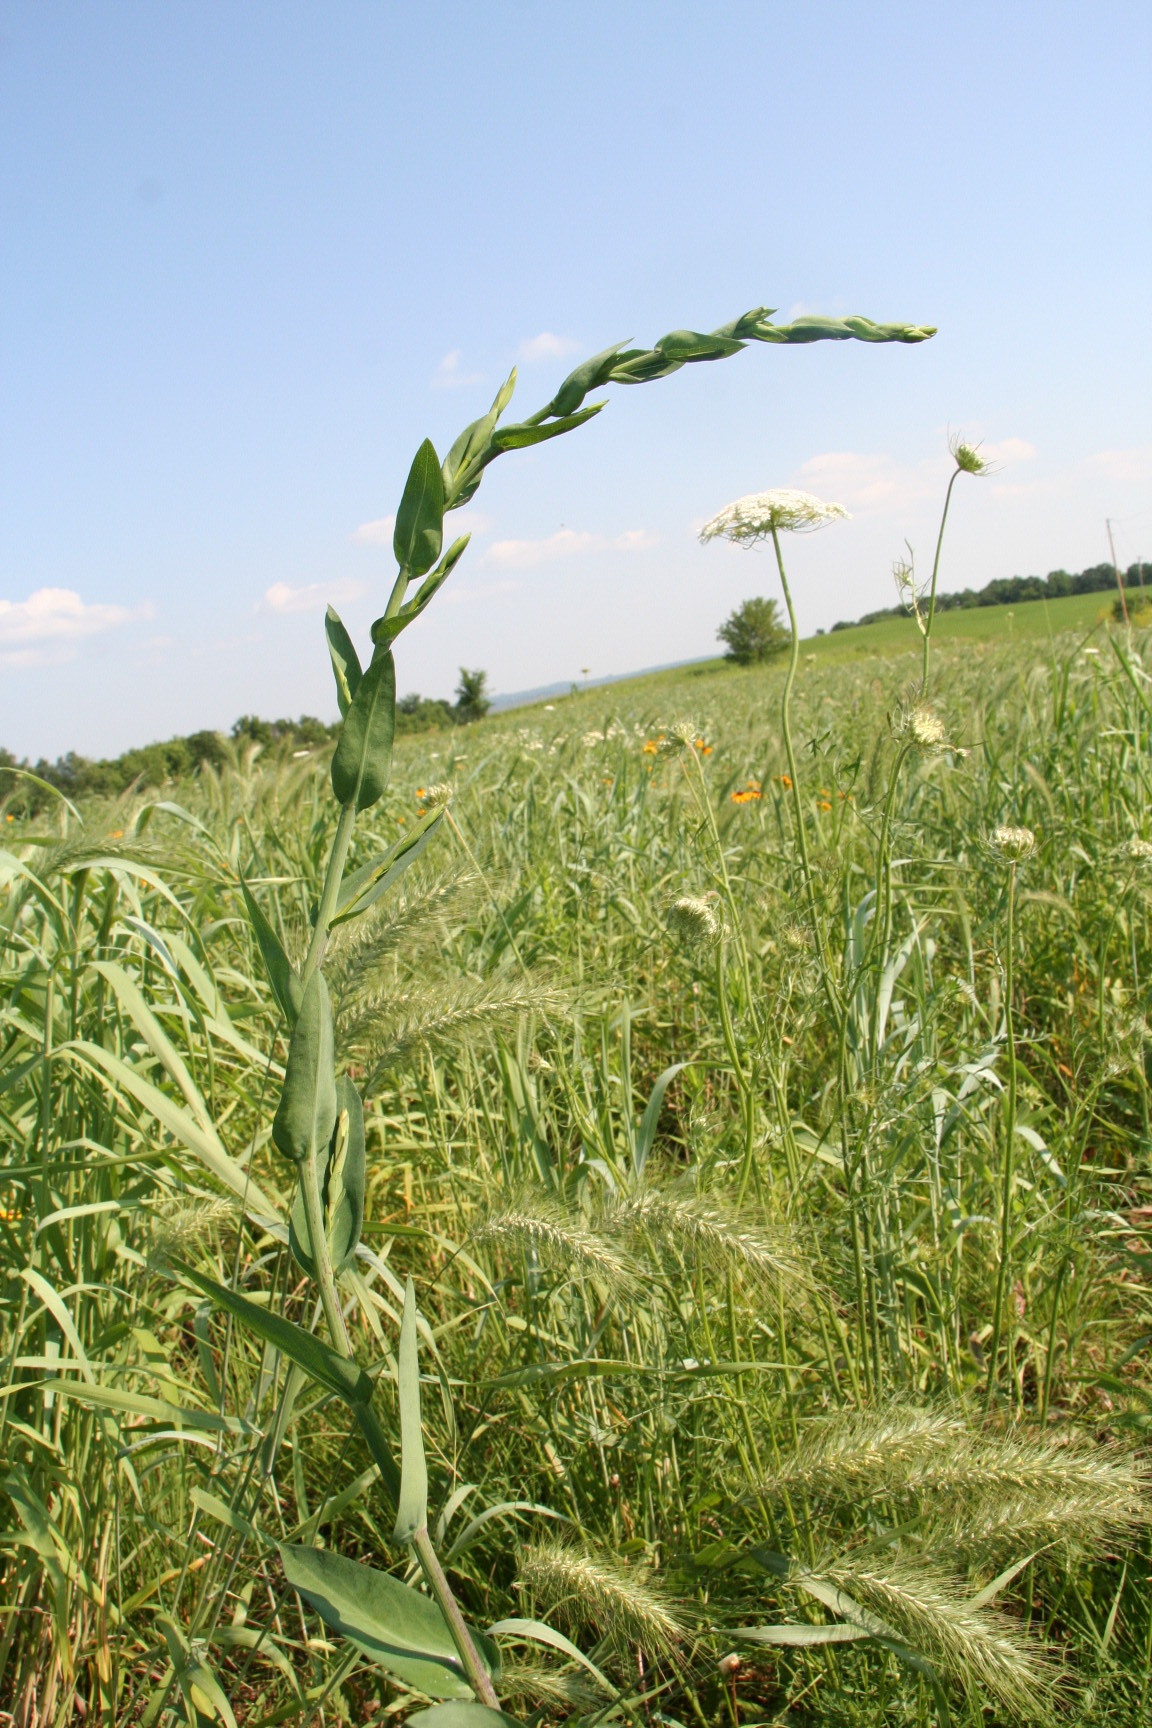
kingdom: Plantae
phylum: Tracheophyta
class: Magnoliopsida
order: Asterales
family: Asteraceae
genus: Symphyotrichum
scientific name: Symphyotrichum laeve
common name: Glaucous aster
